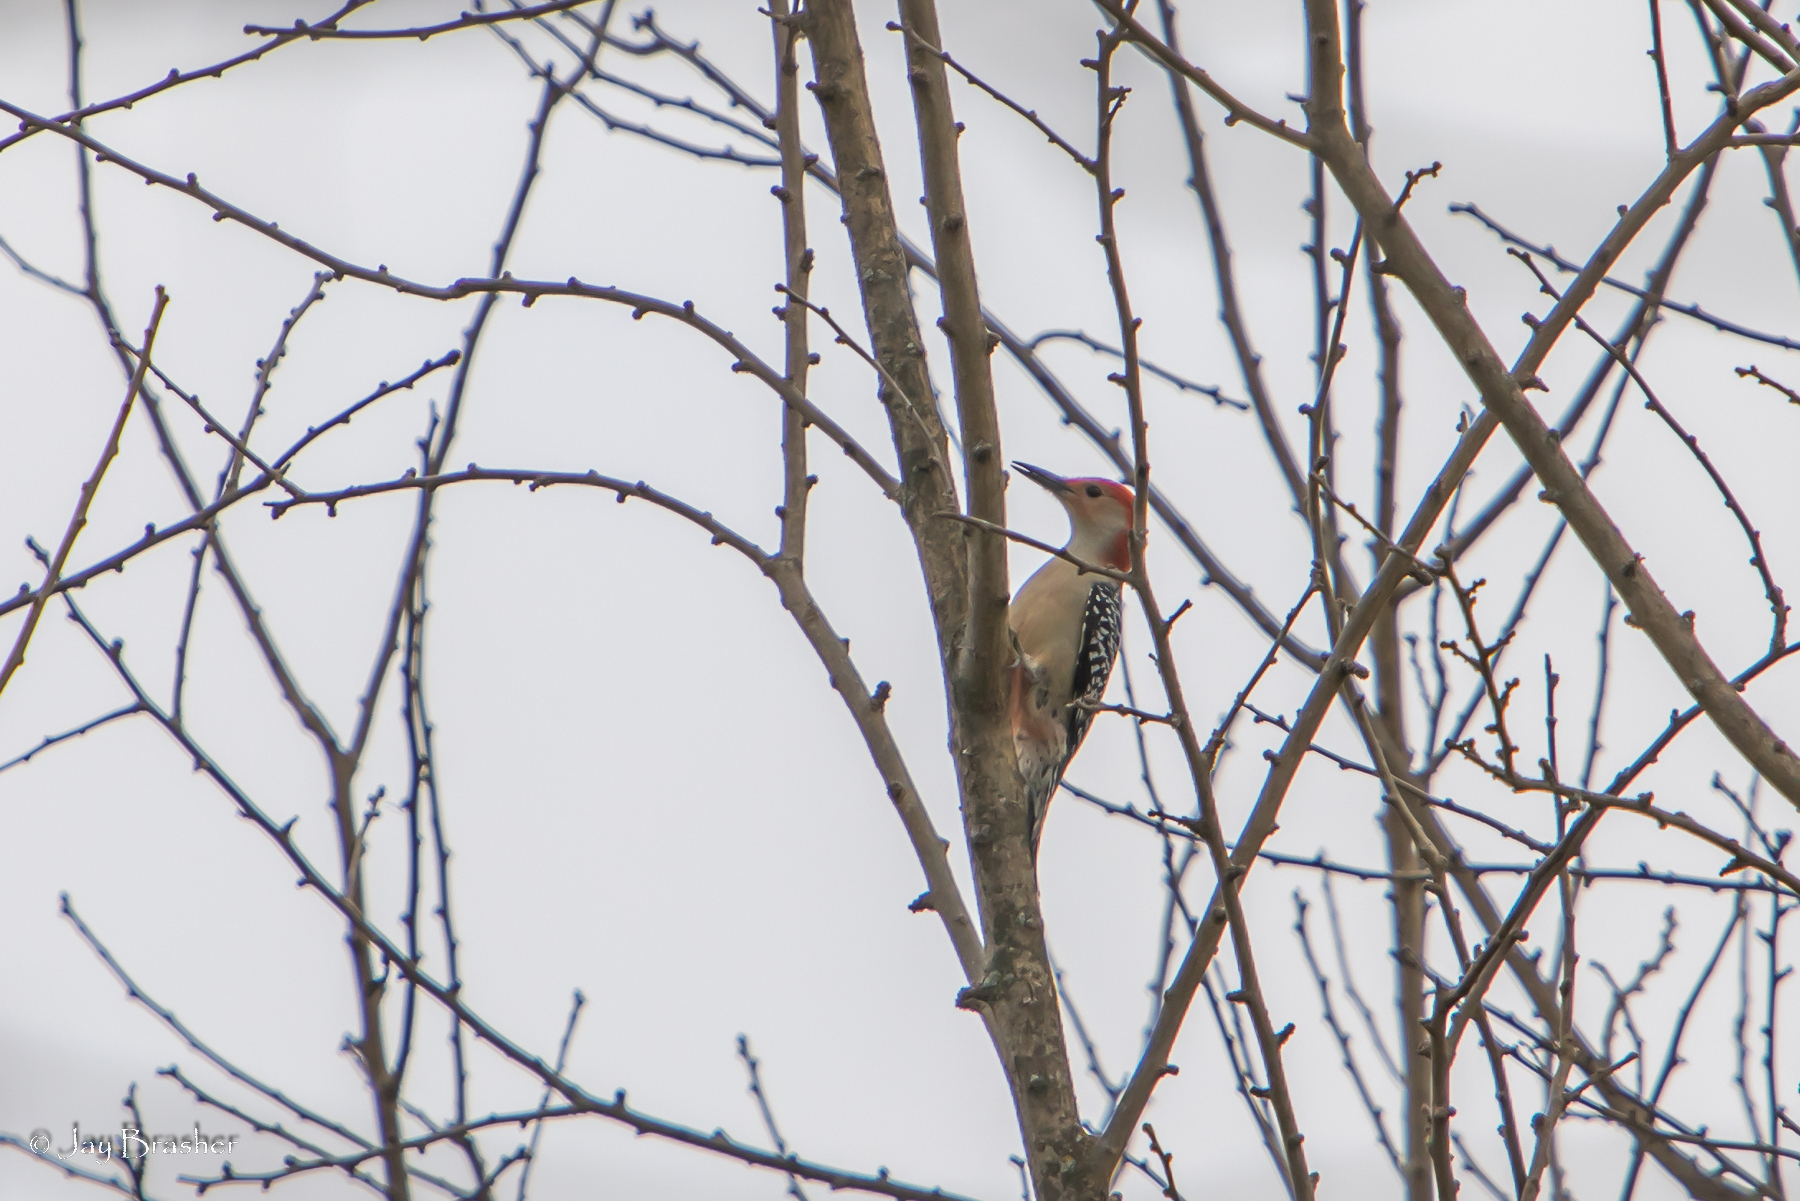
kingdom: Animalia
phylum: Chordata
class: Aves
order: Piciformes
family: Picidae
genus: Melanerpes
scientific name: Melanerpes carolinus
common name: Red-bellied woodpecker
